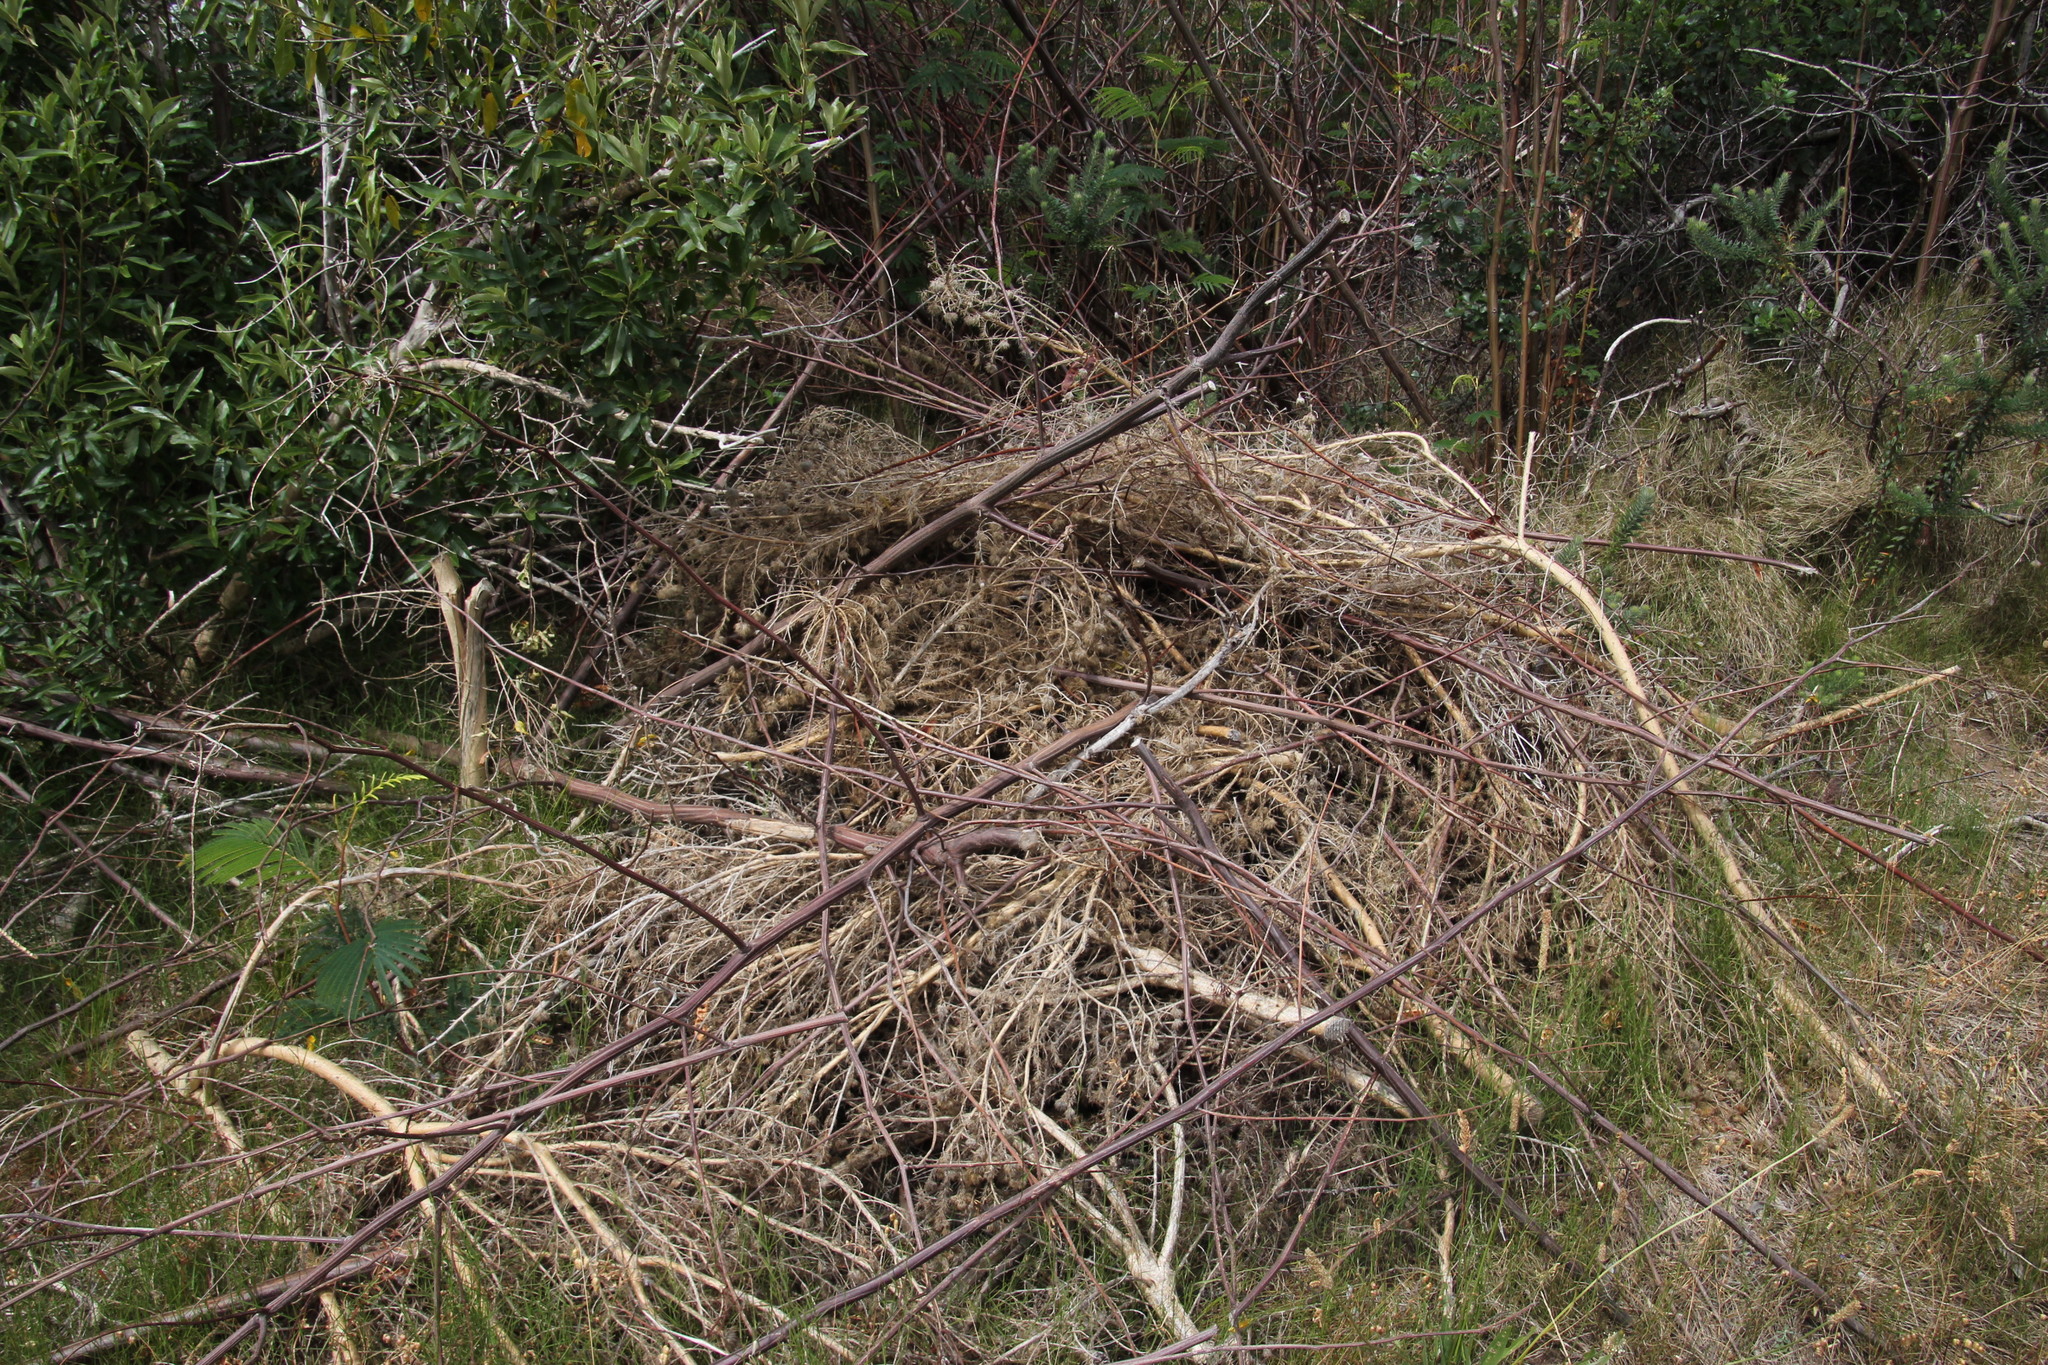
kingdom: Plantae
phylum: Tracheophyta
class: Magnoliopsida
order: Fabales
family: Fabaceae
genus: Aspalathus
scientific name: Aspalathus chenopoda
